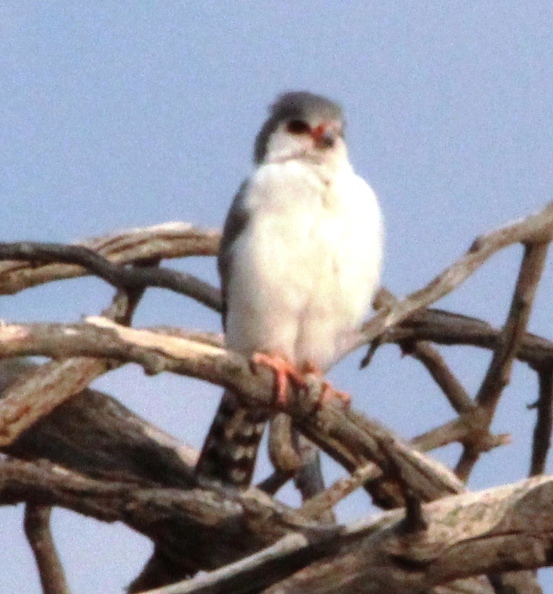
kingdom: Animalia
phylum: Chordata
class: Aves
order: Falconiformes
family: Falconidae
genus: Polihierax
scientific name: Polihierax semitorquatus
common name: Pygmy falcon
